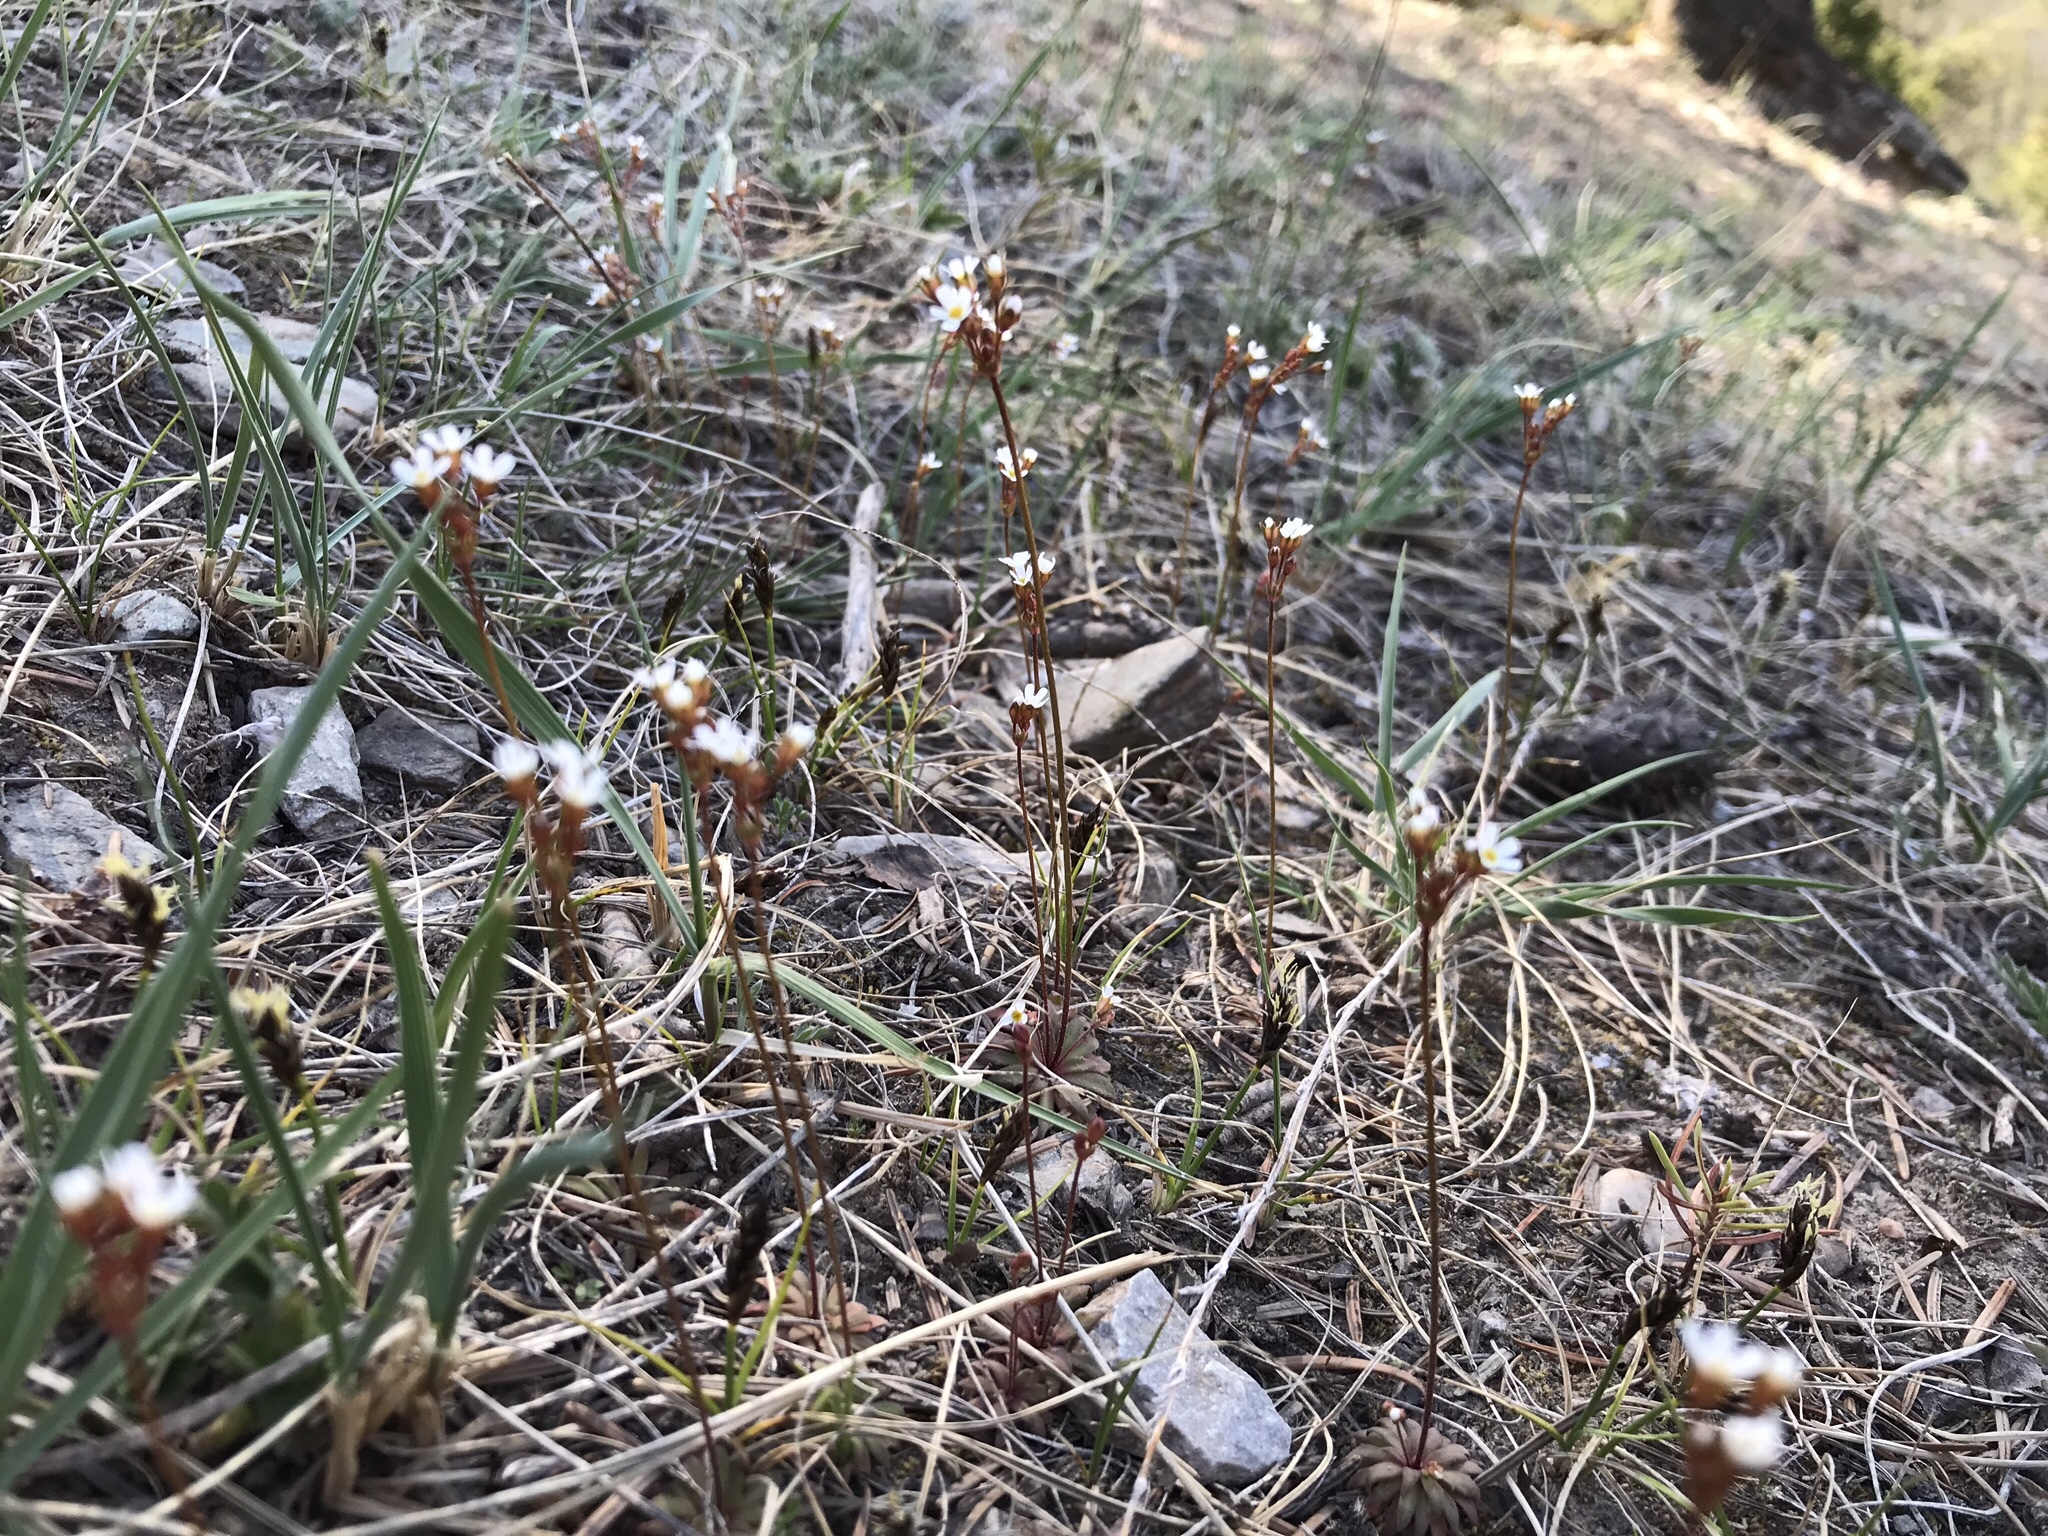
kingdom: Plantae
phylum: Tracheophyta
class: Magnoliopsida
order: Ericales
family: Primulaceae
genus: Androsace
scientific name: Androsace septentrionalis
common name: Hairy northern fairy-candelabra
